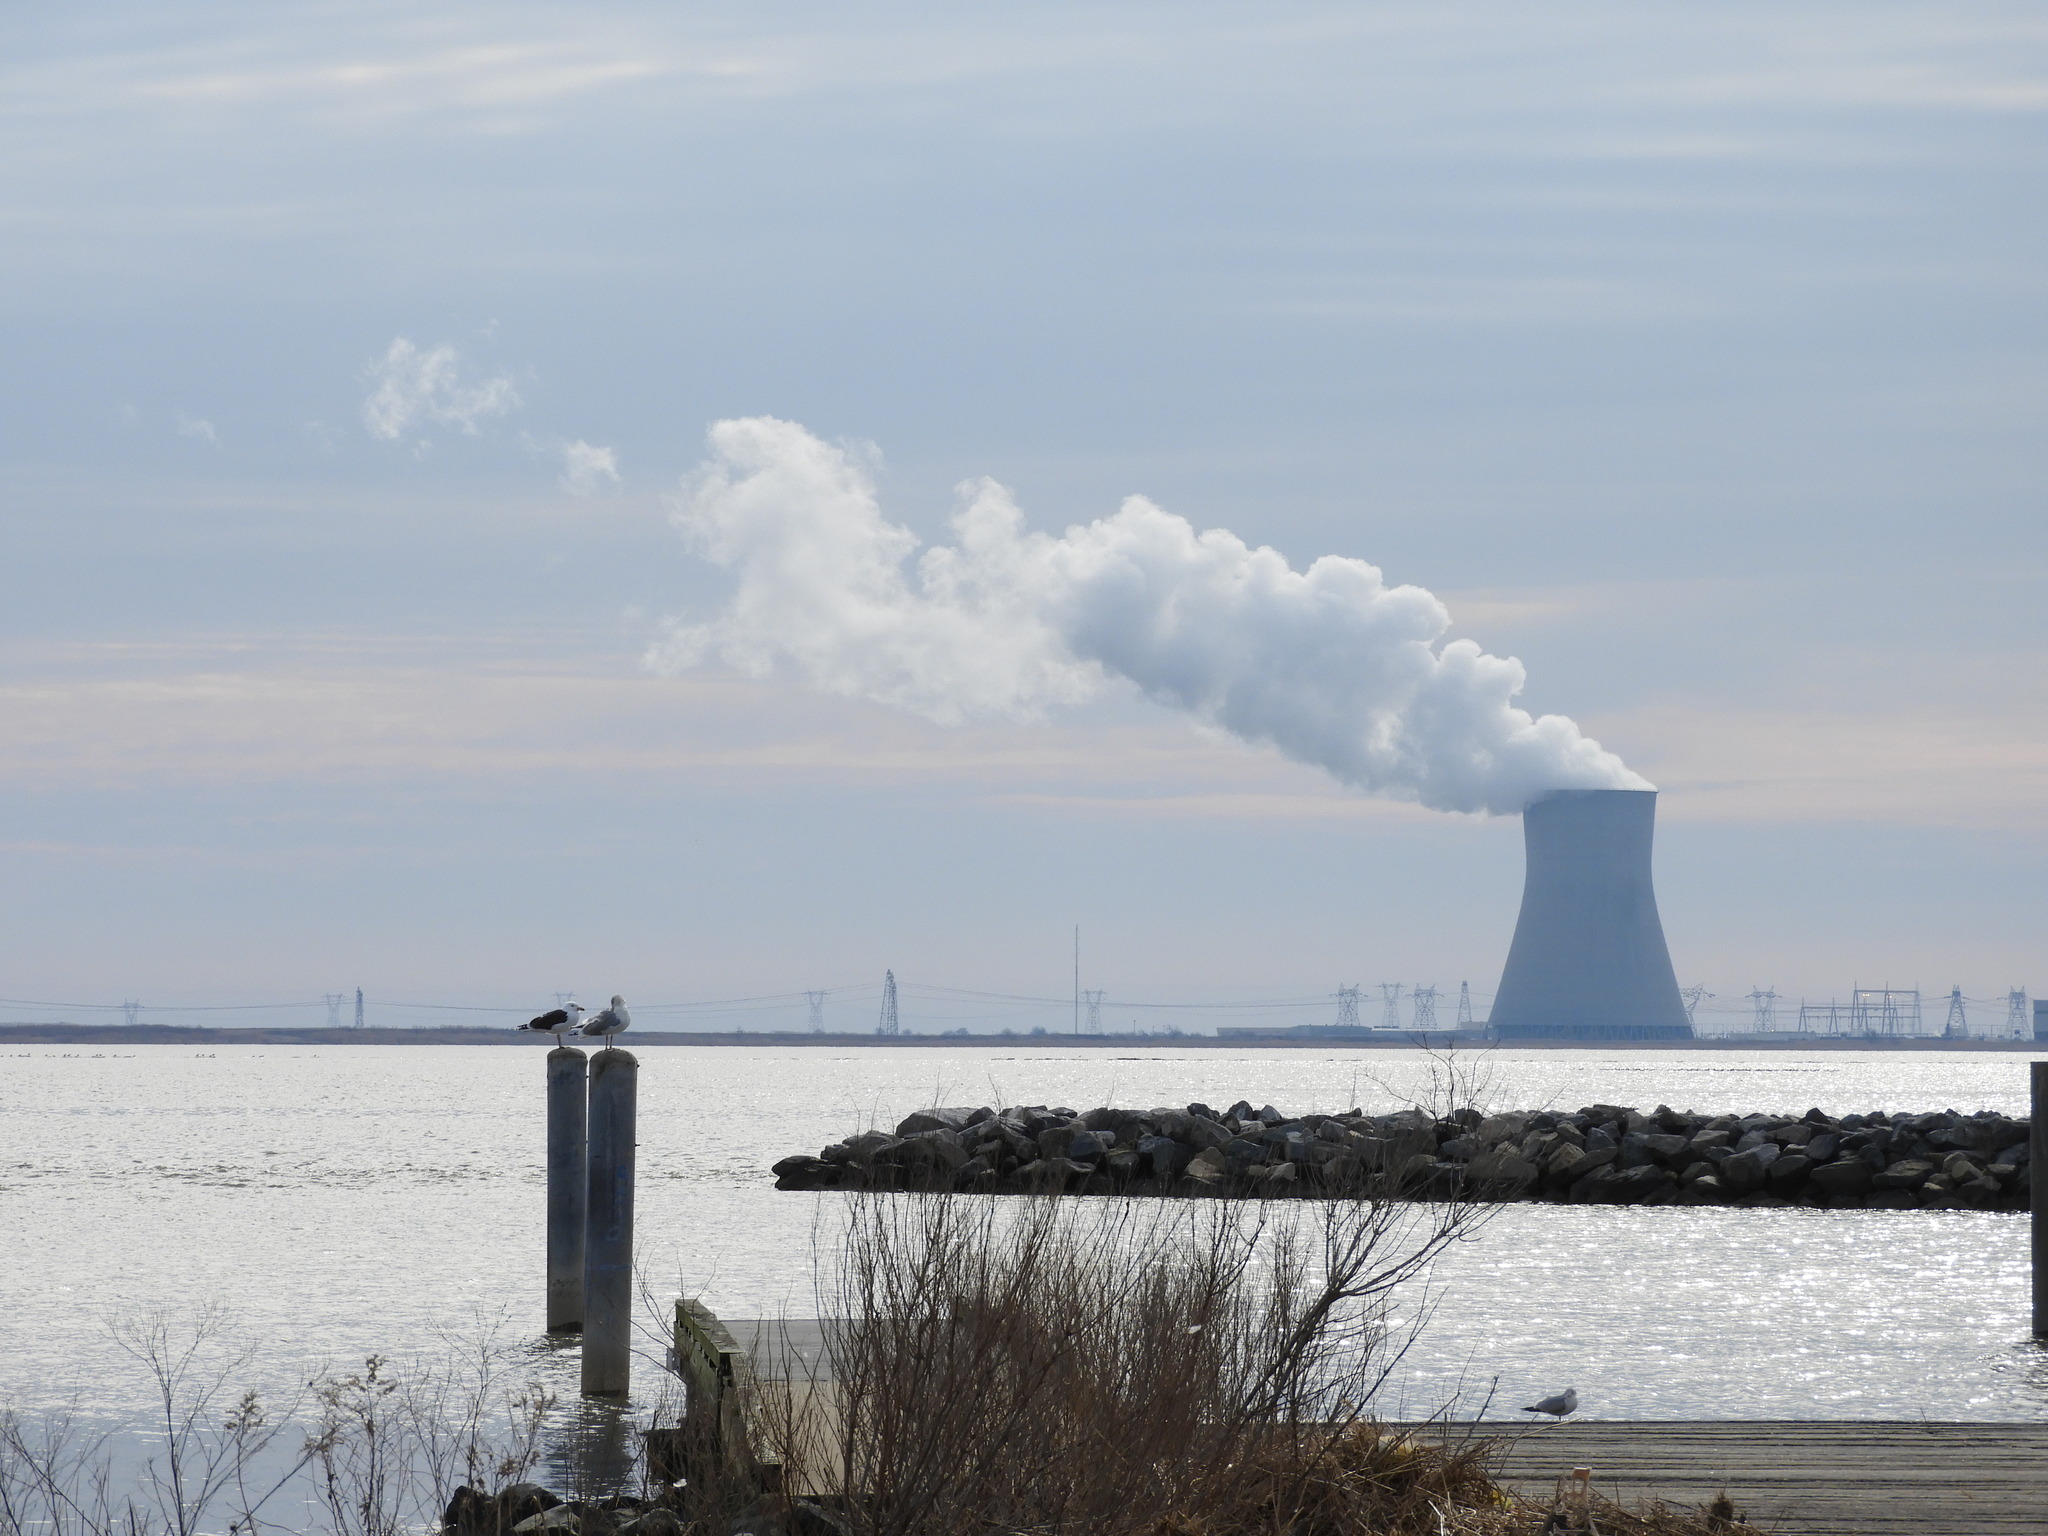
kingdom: Animalia
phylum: Chordata
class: Aves
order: Charadriiformes
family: Laridae
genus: Larus
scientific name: Larus marinus
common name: Great black-backed gull
